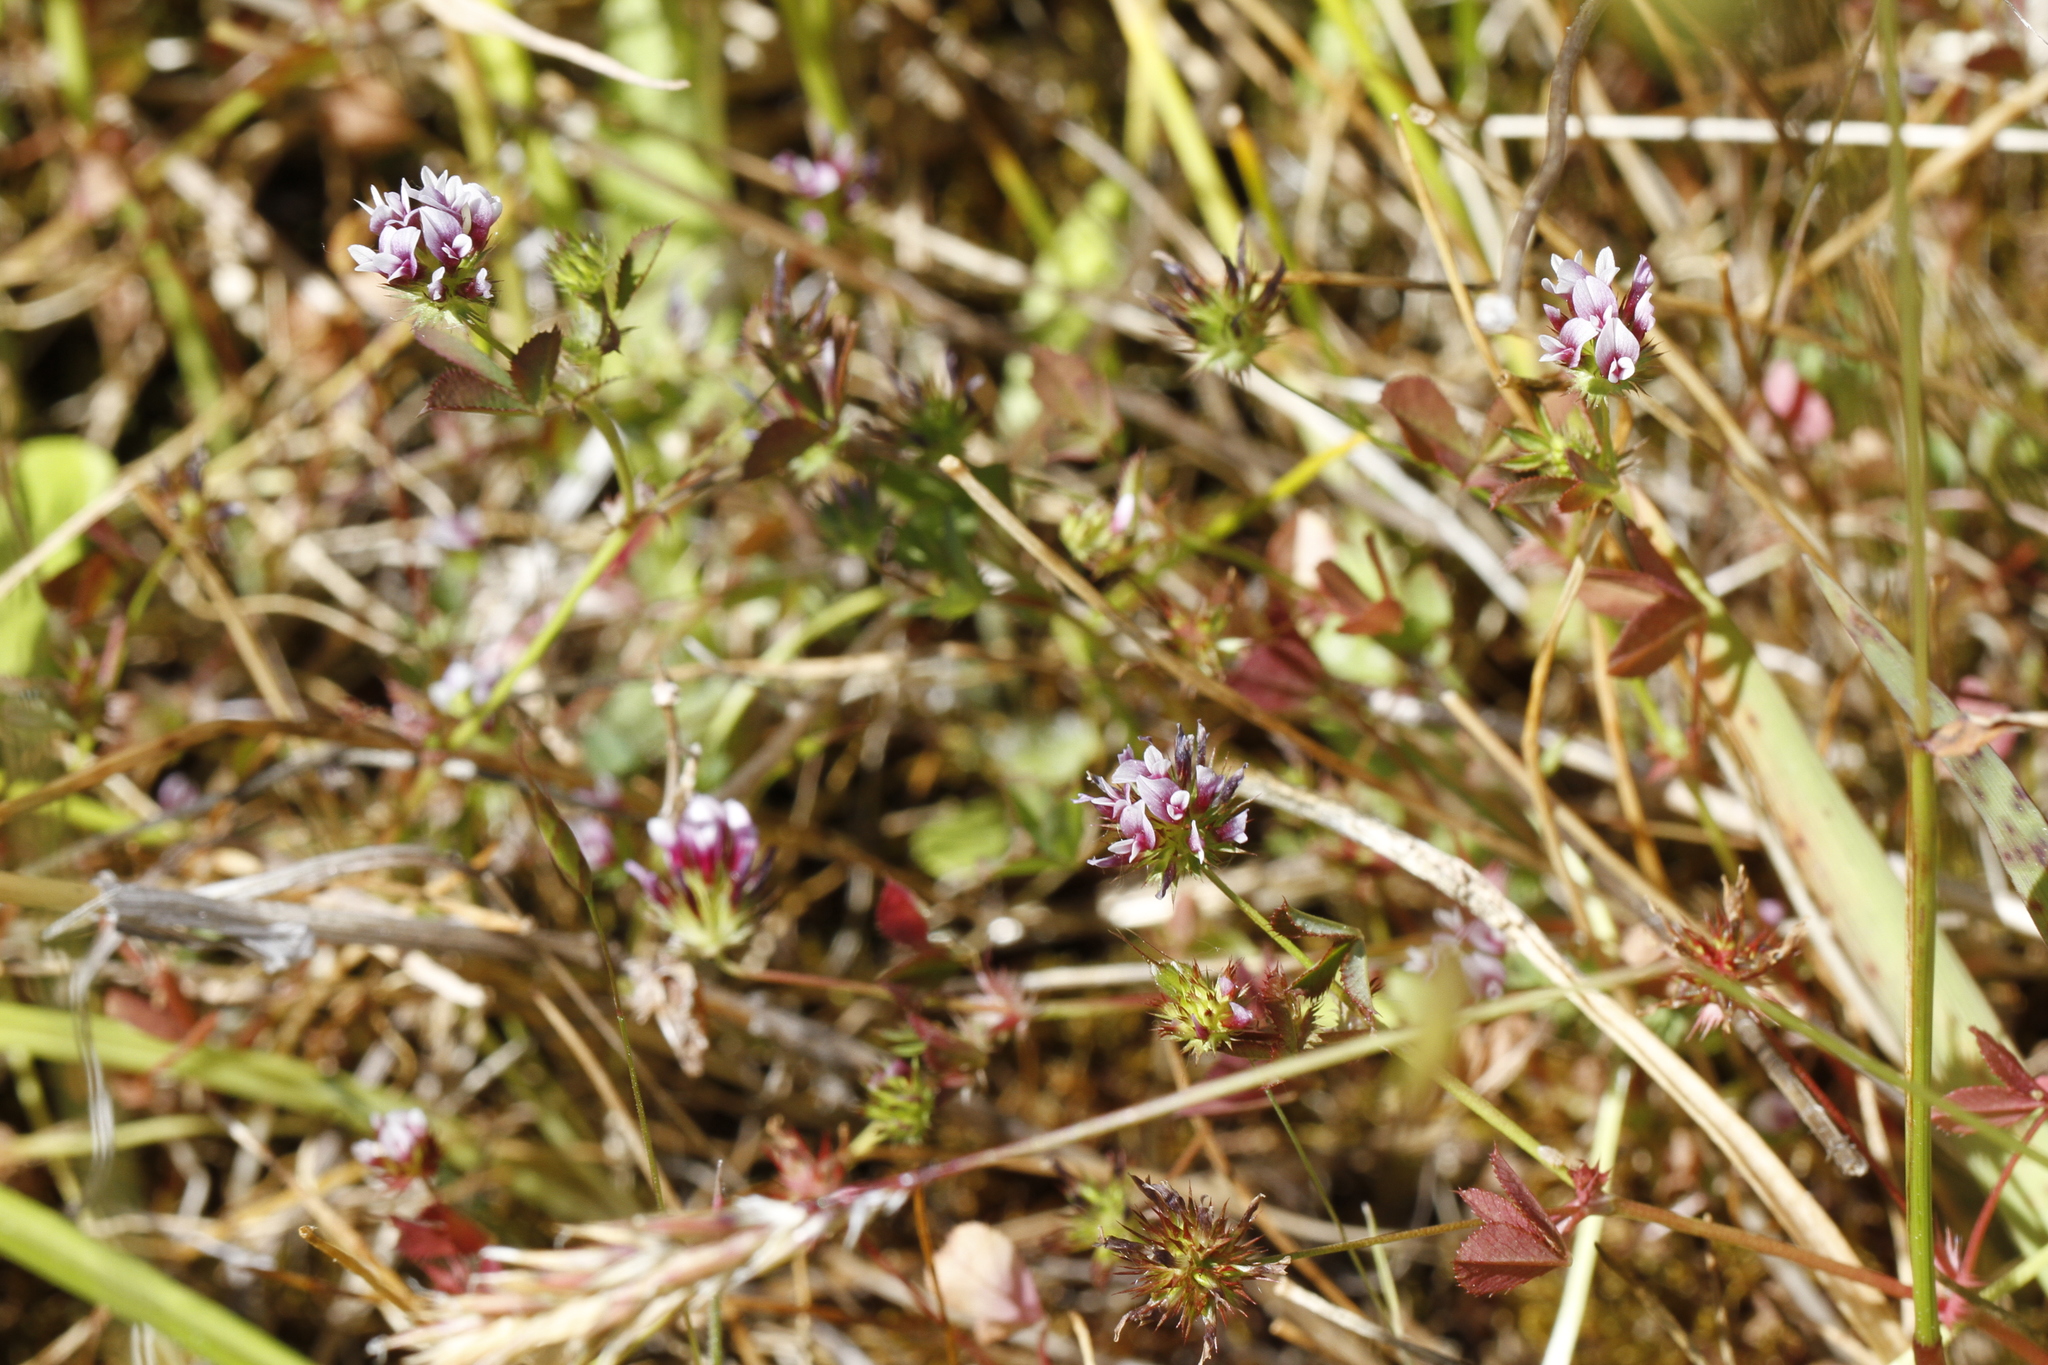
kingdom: Plantae
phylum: Tracheophyta
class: Magnoliopsida
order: Fabales
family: Fabaceae
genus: Trifolium
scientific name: Trifolium variegatum
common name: Whitetip clover
